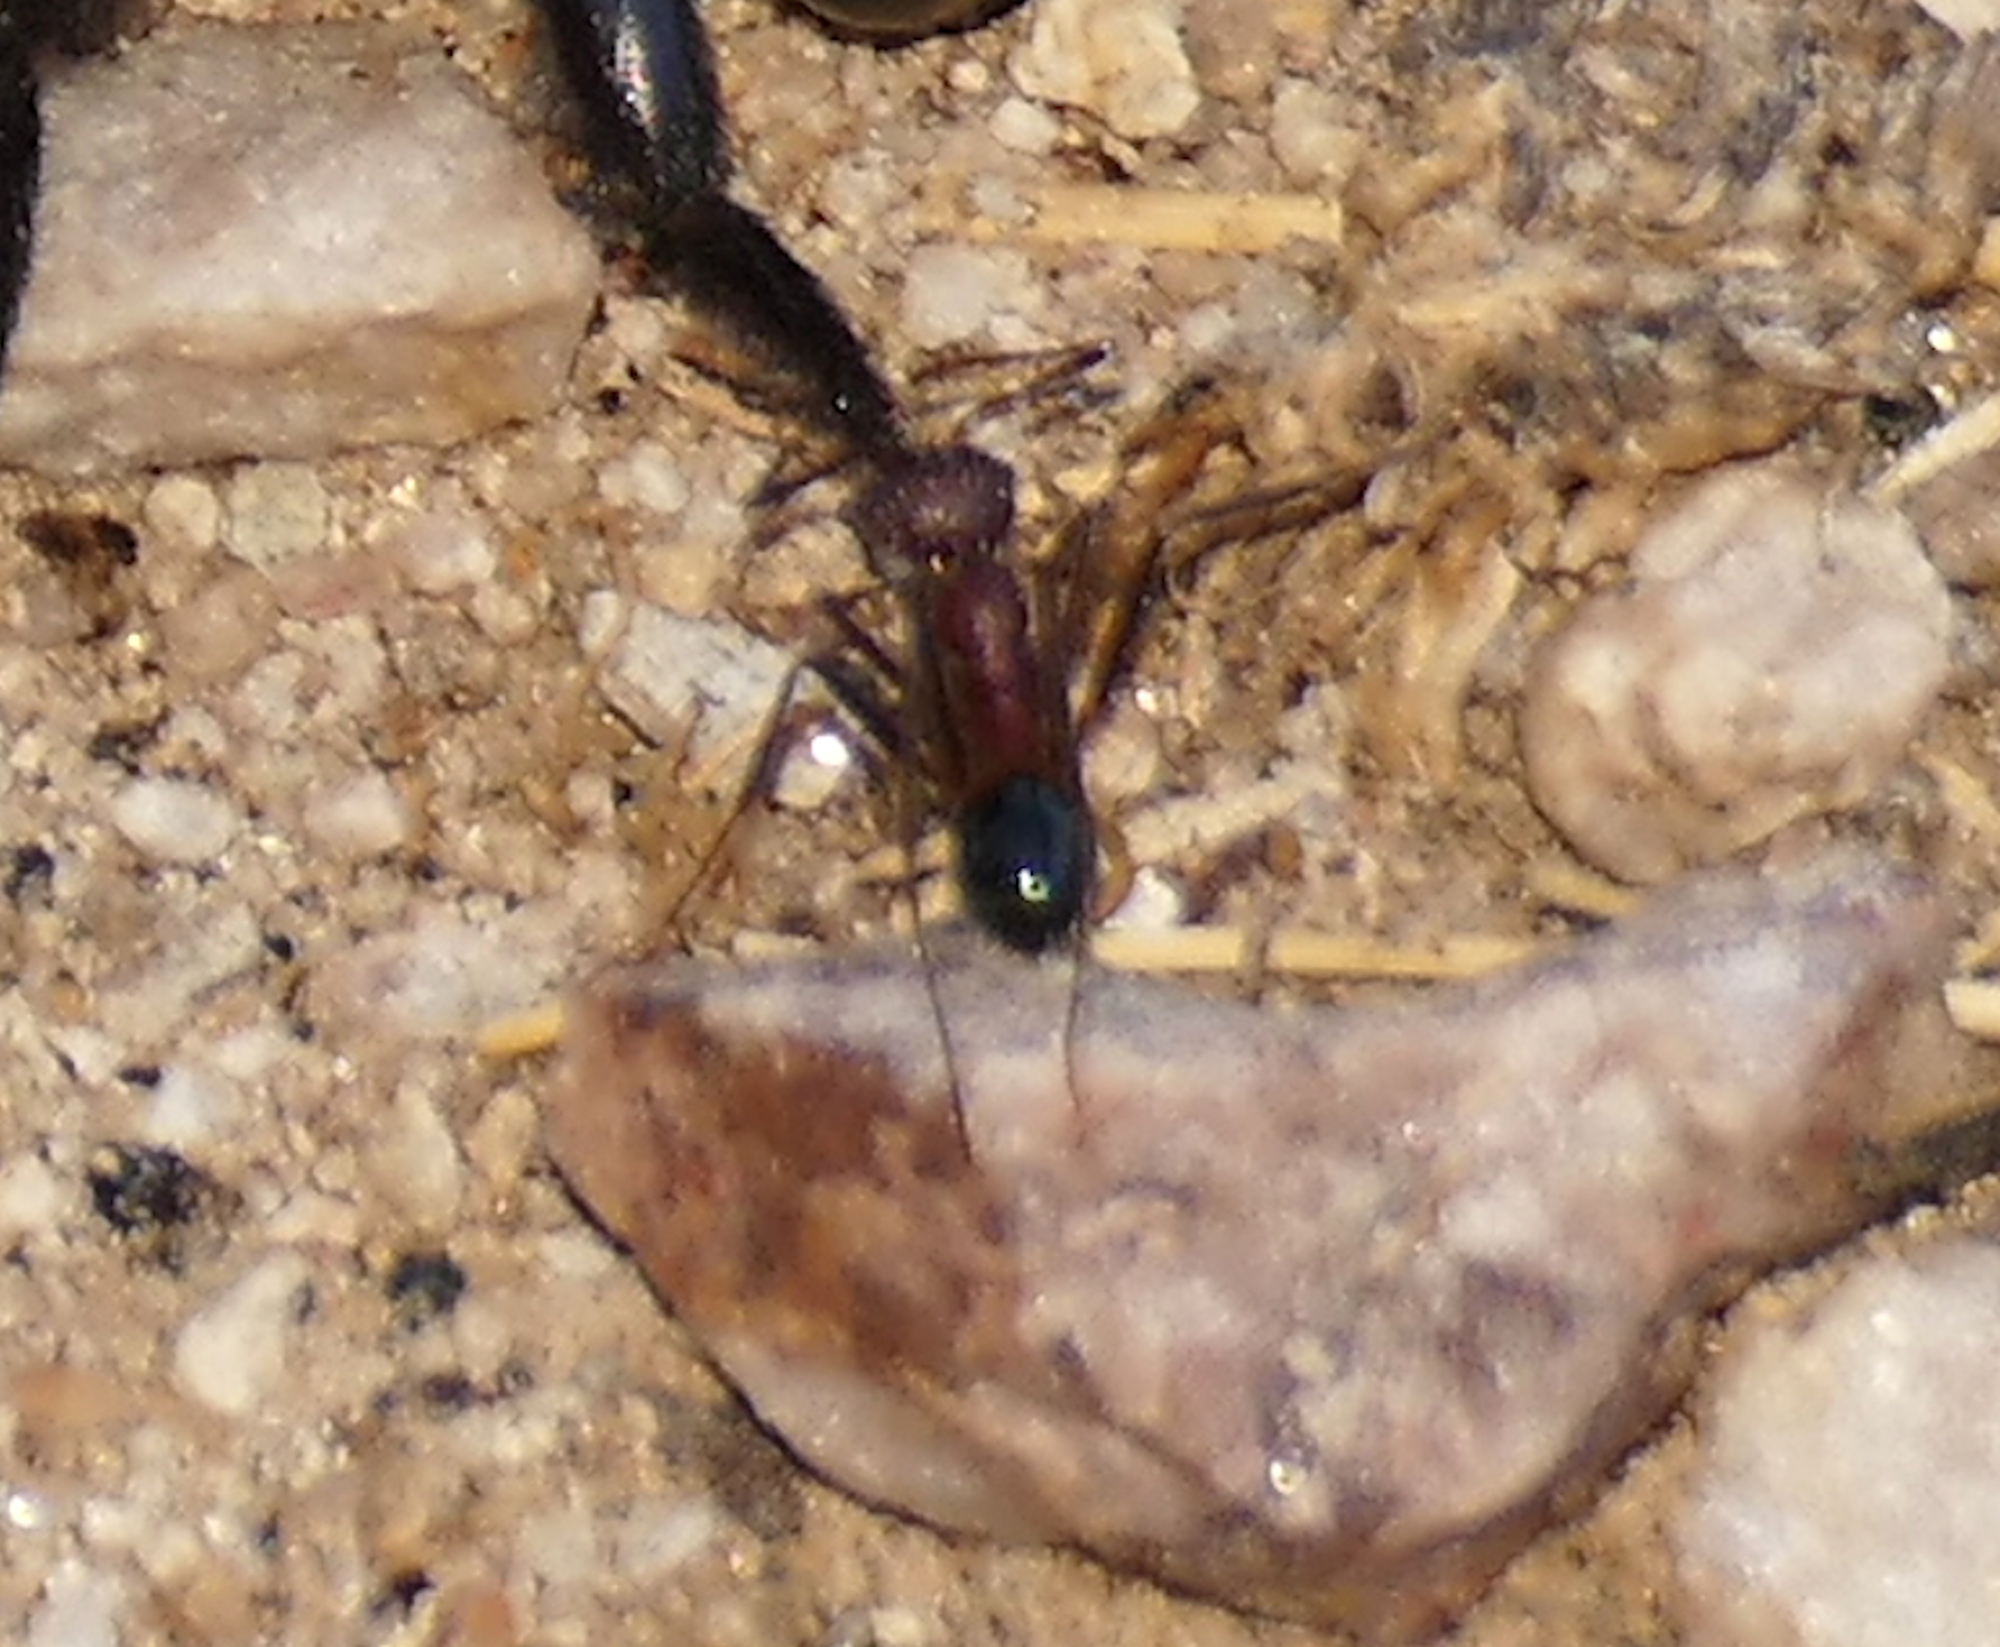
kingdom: Animalia
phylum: Arthropoda
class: Insecta
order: Hymenoptera
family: Formicidae
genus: Novomessor
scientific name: Novomessor albisetosa
